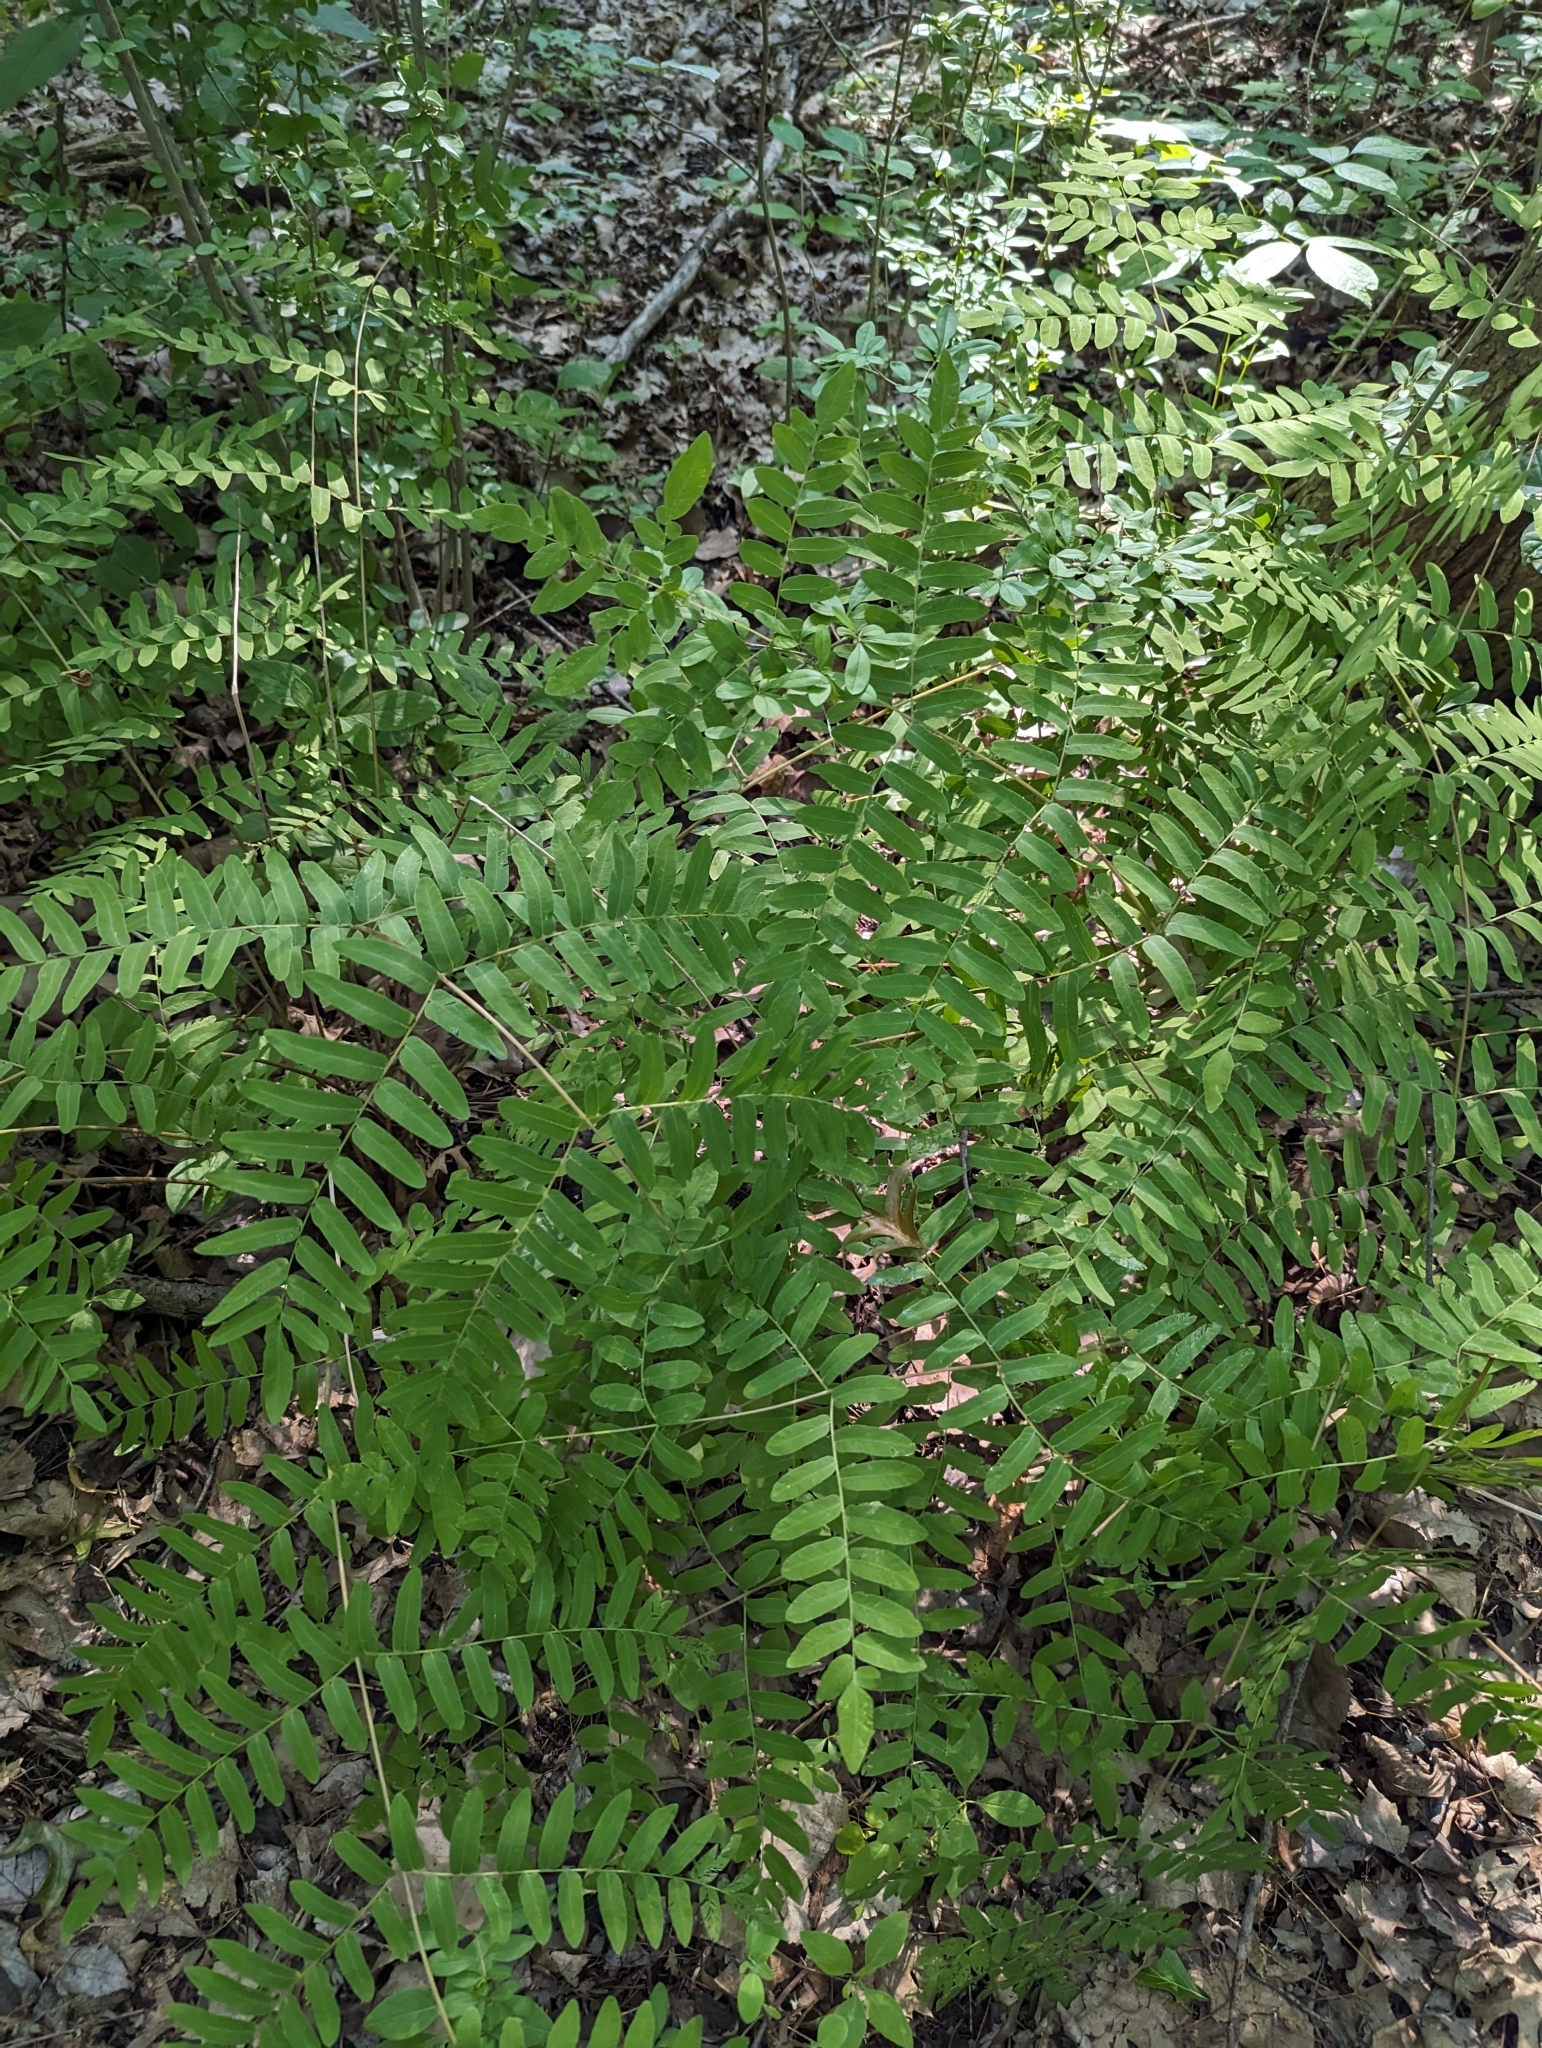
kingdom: Plantae
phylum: Tracheophyta
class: Polypodiopsida
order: Osmundales
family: Osmundaceae
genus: Osmunda
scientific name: Osmunda spectabilis
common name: American royal fern
